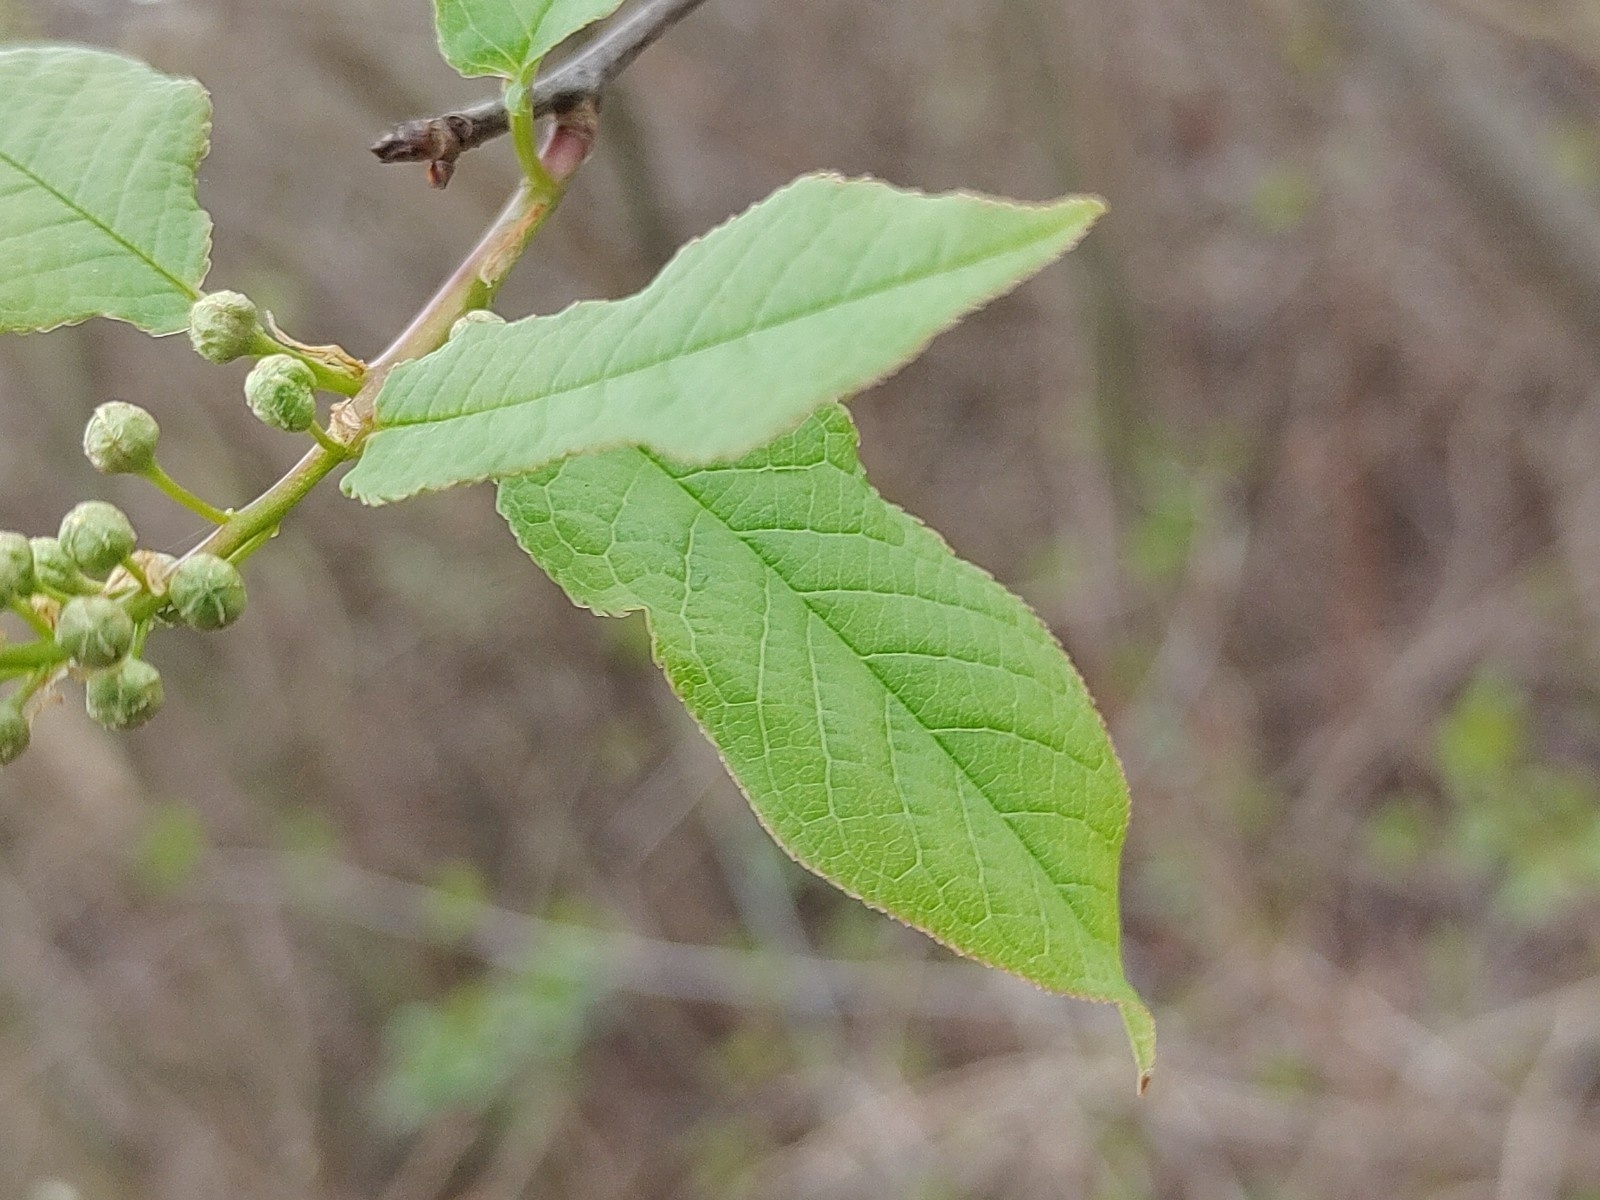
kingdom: Plantae
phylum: Tracheophyta
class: Magnoliopsida
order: Rosales
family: Rosaceae
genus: Prunus
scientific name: Prunus padus
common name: Bird cherry
